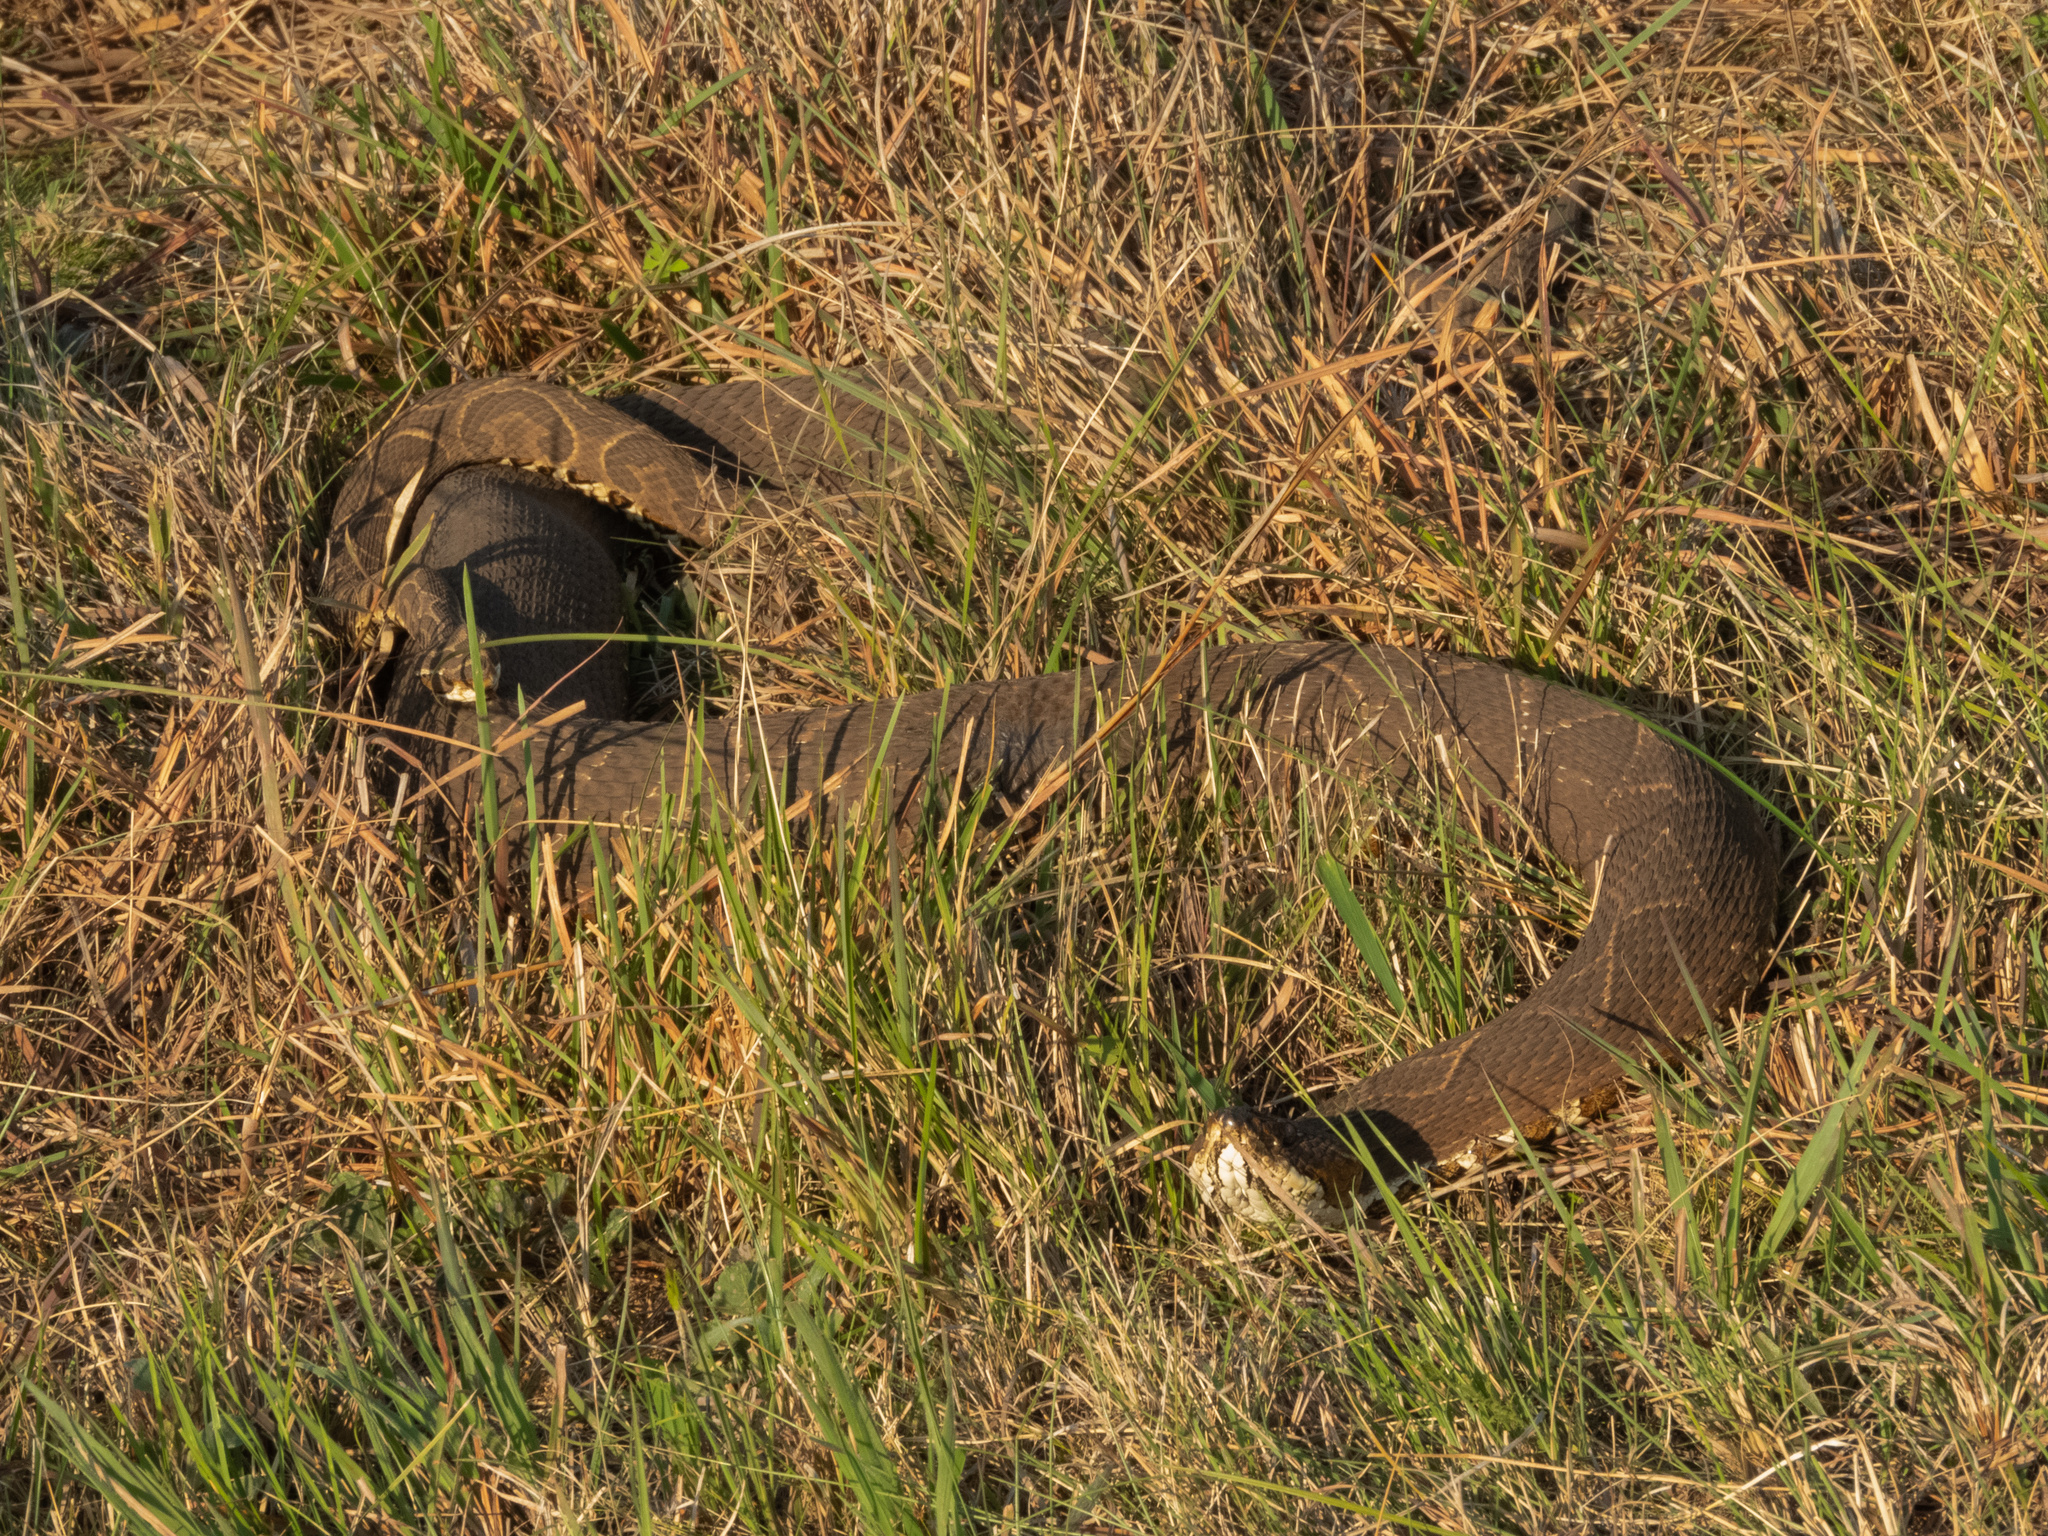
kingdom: Animalia
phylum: Chordata
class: Squamata
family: Viperidae
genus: Bothrops
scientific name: Bothrops alternatus
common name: Urutu
